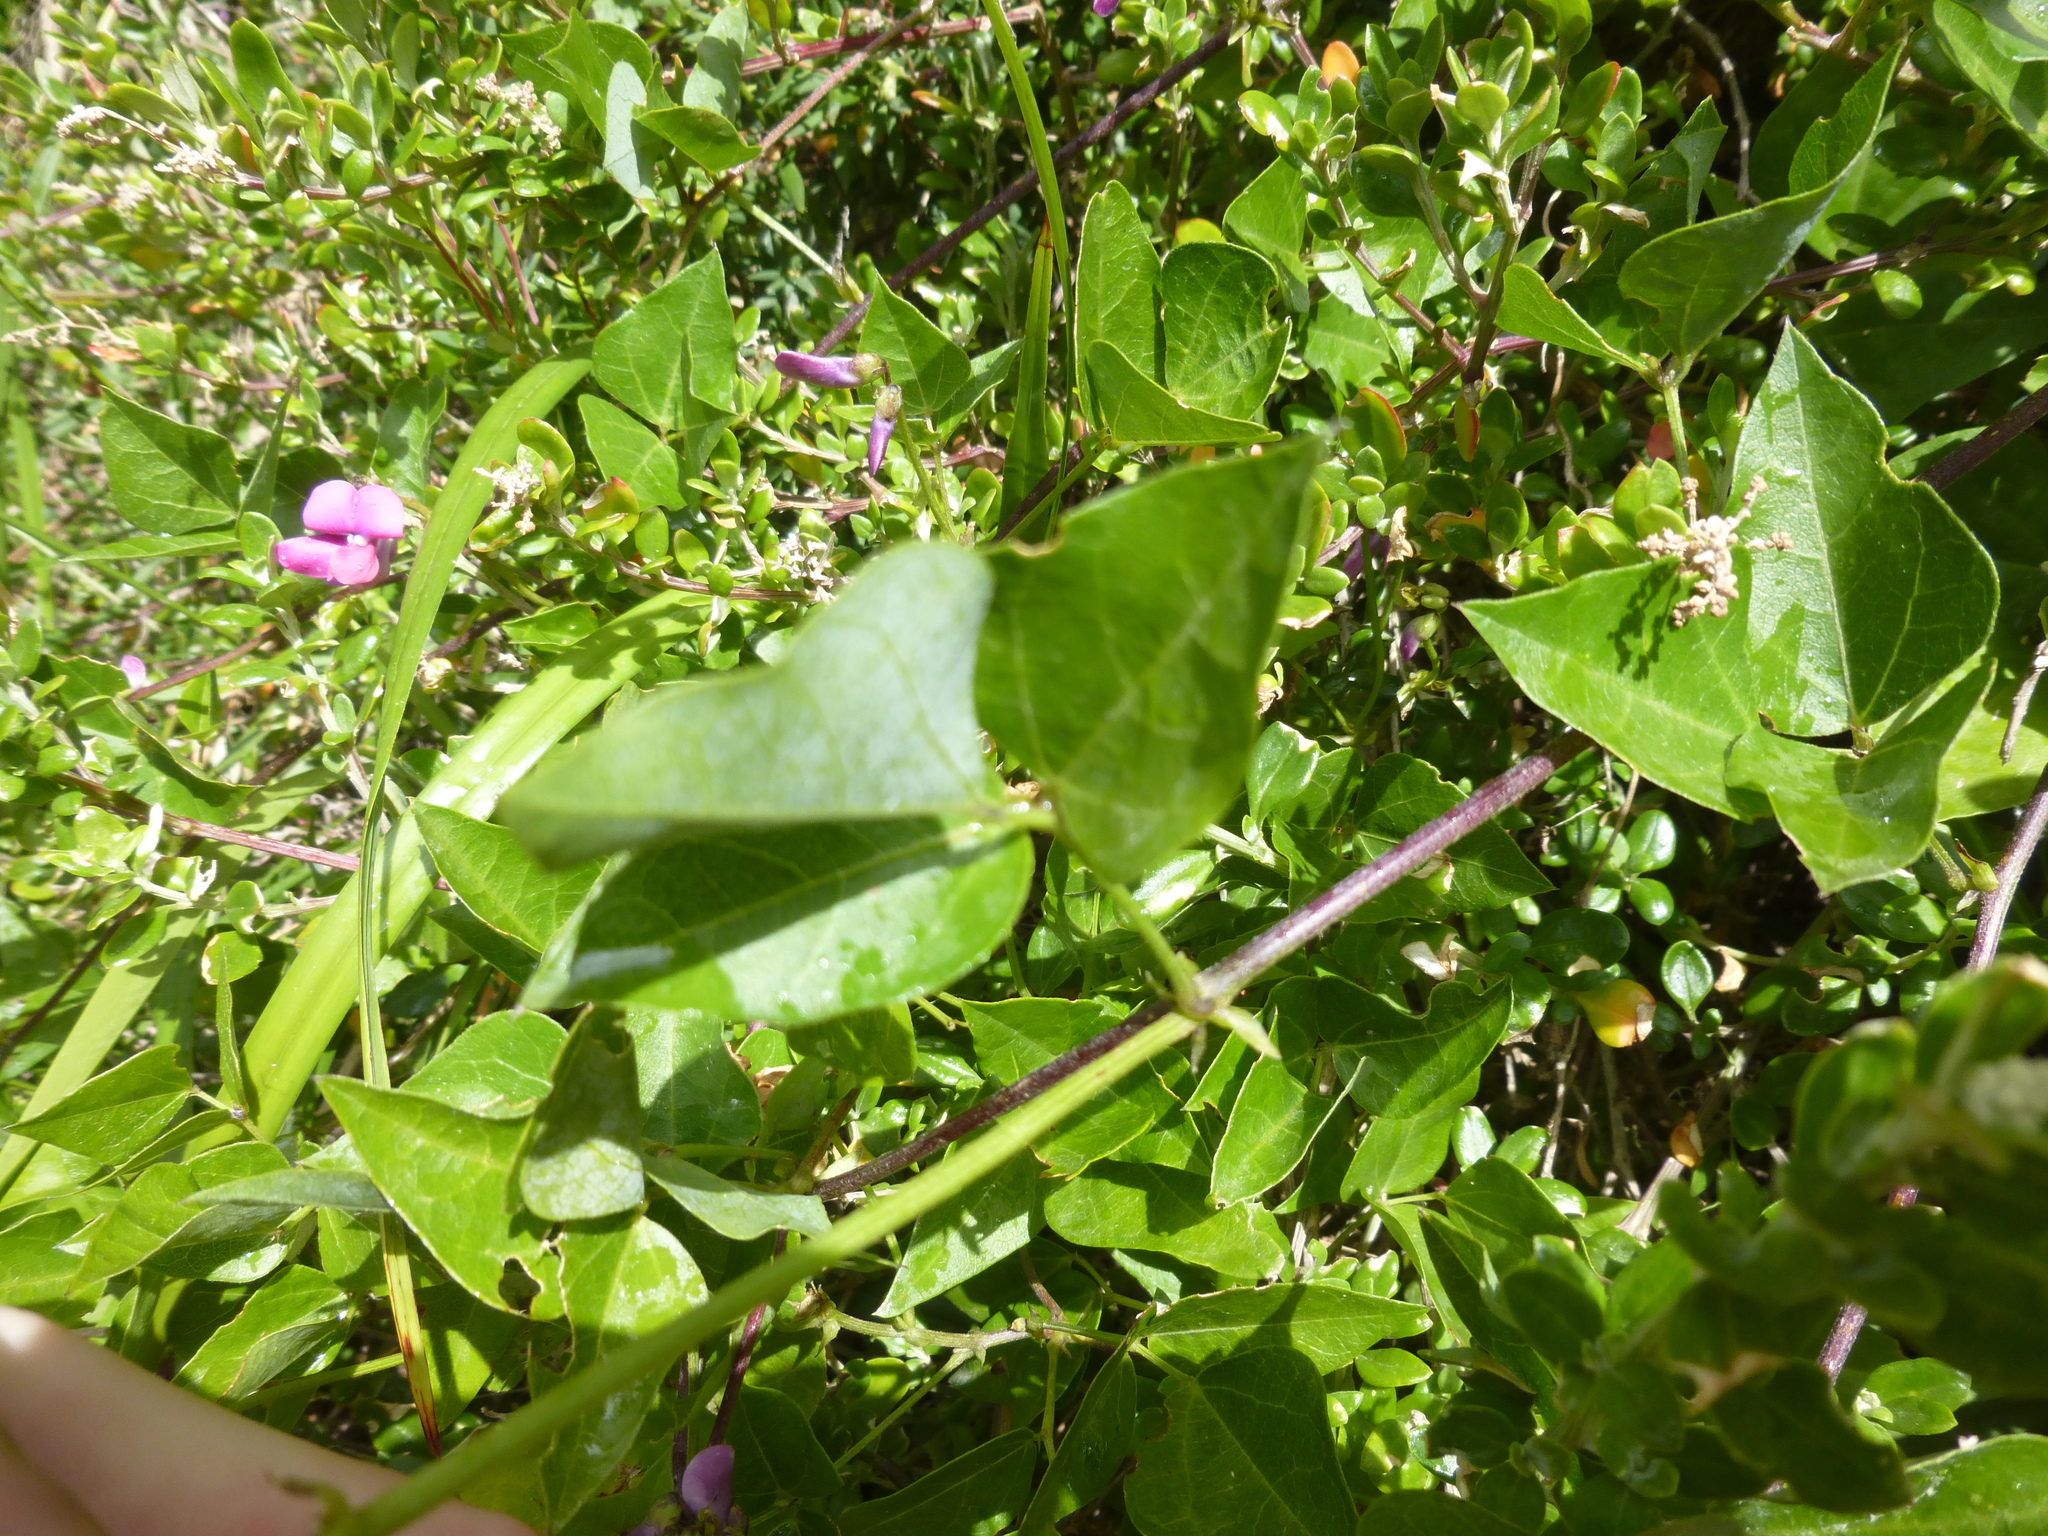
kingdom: Plantae
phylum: Tracheophyta
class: Magnoliopsida
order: Fabales
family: Fabaceae
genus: Dipogon
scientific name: Dipogon lignosus
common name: Okie bean
